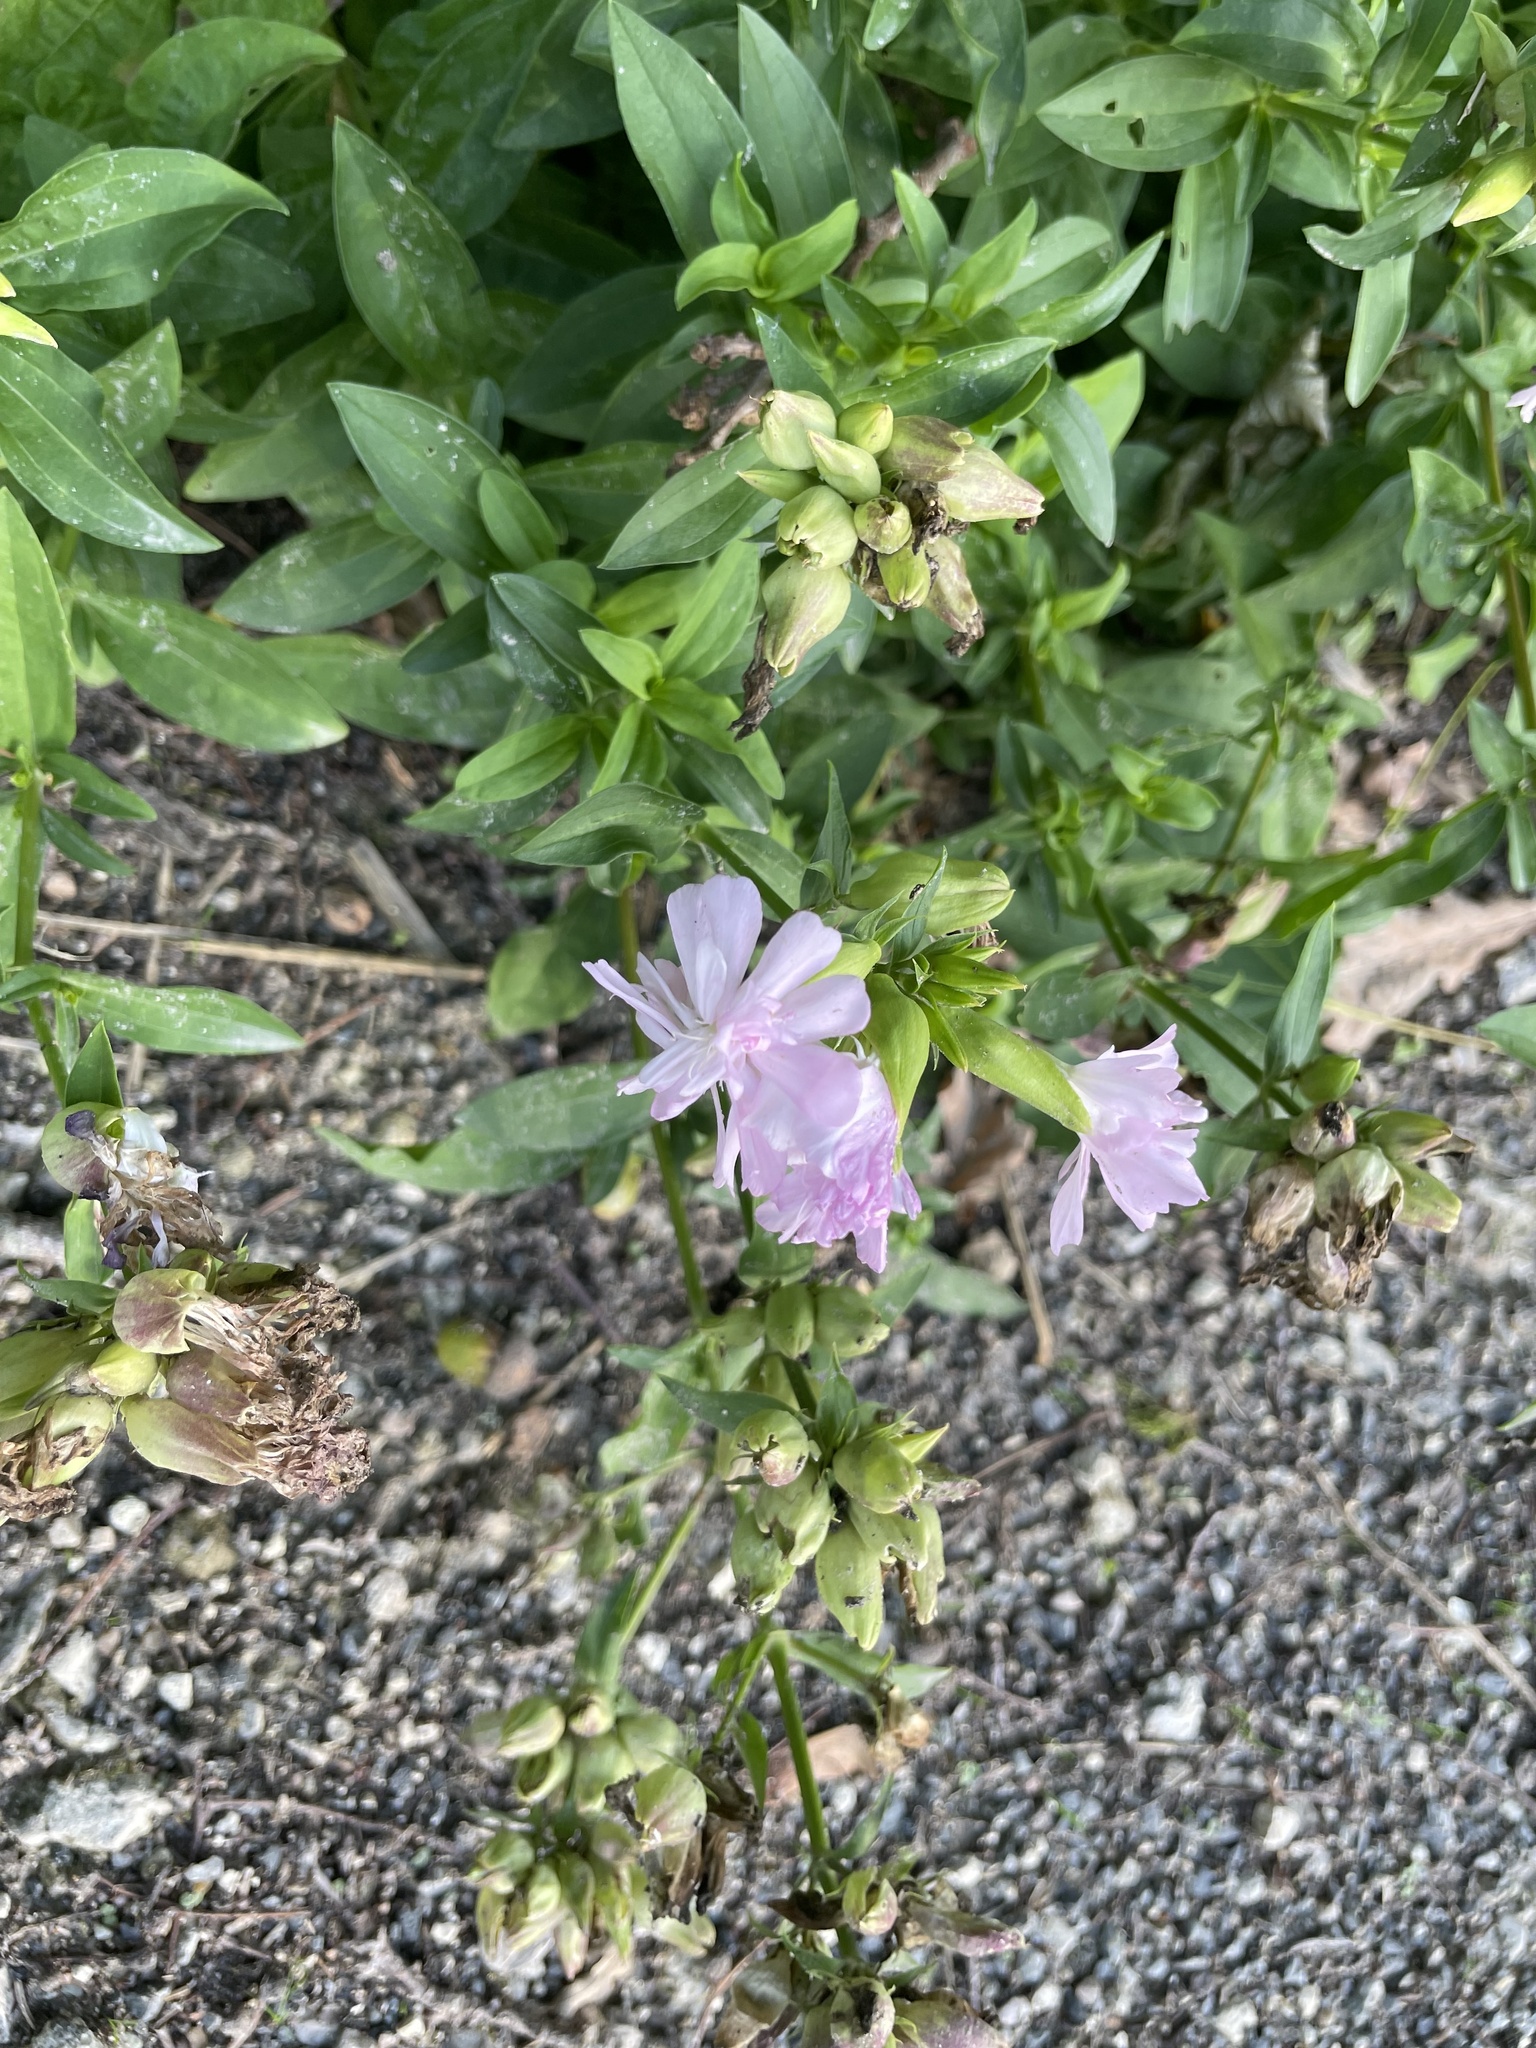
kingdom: Plantae
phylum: Tracheophyta
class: Magnoliopsida
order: Caryophyllales
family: Caryophyllaceae
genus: Saponaria
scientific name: Saponaria officinalis
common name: Soapwort
